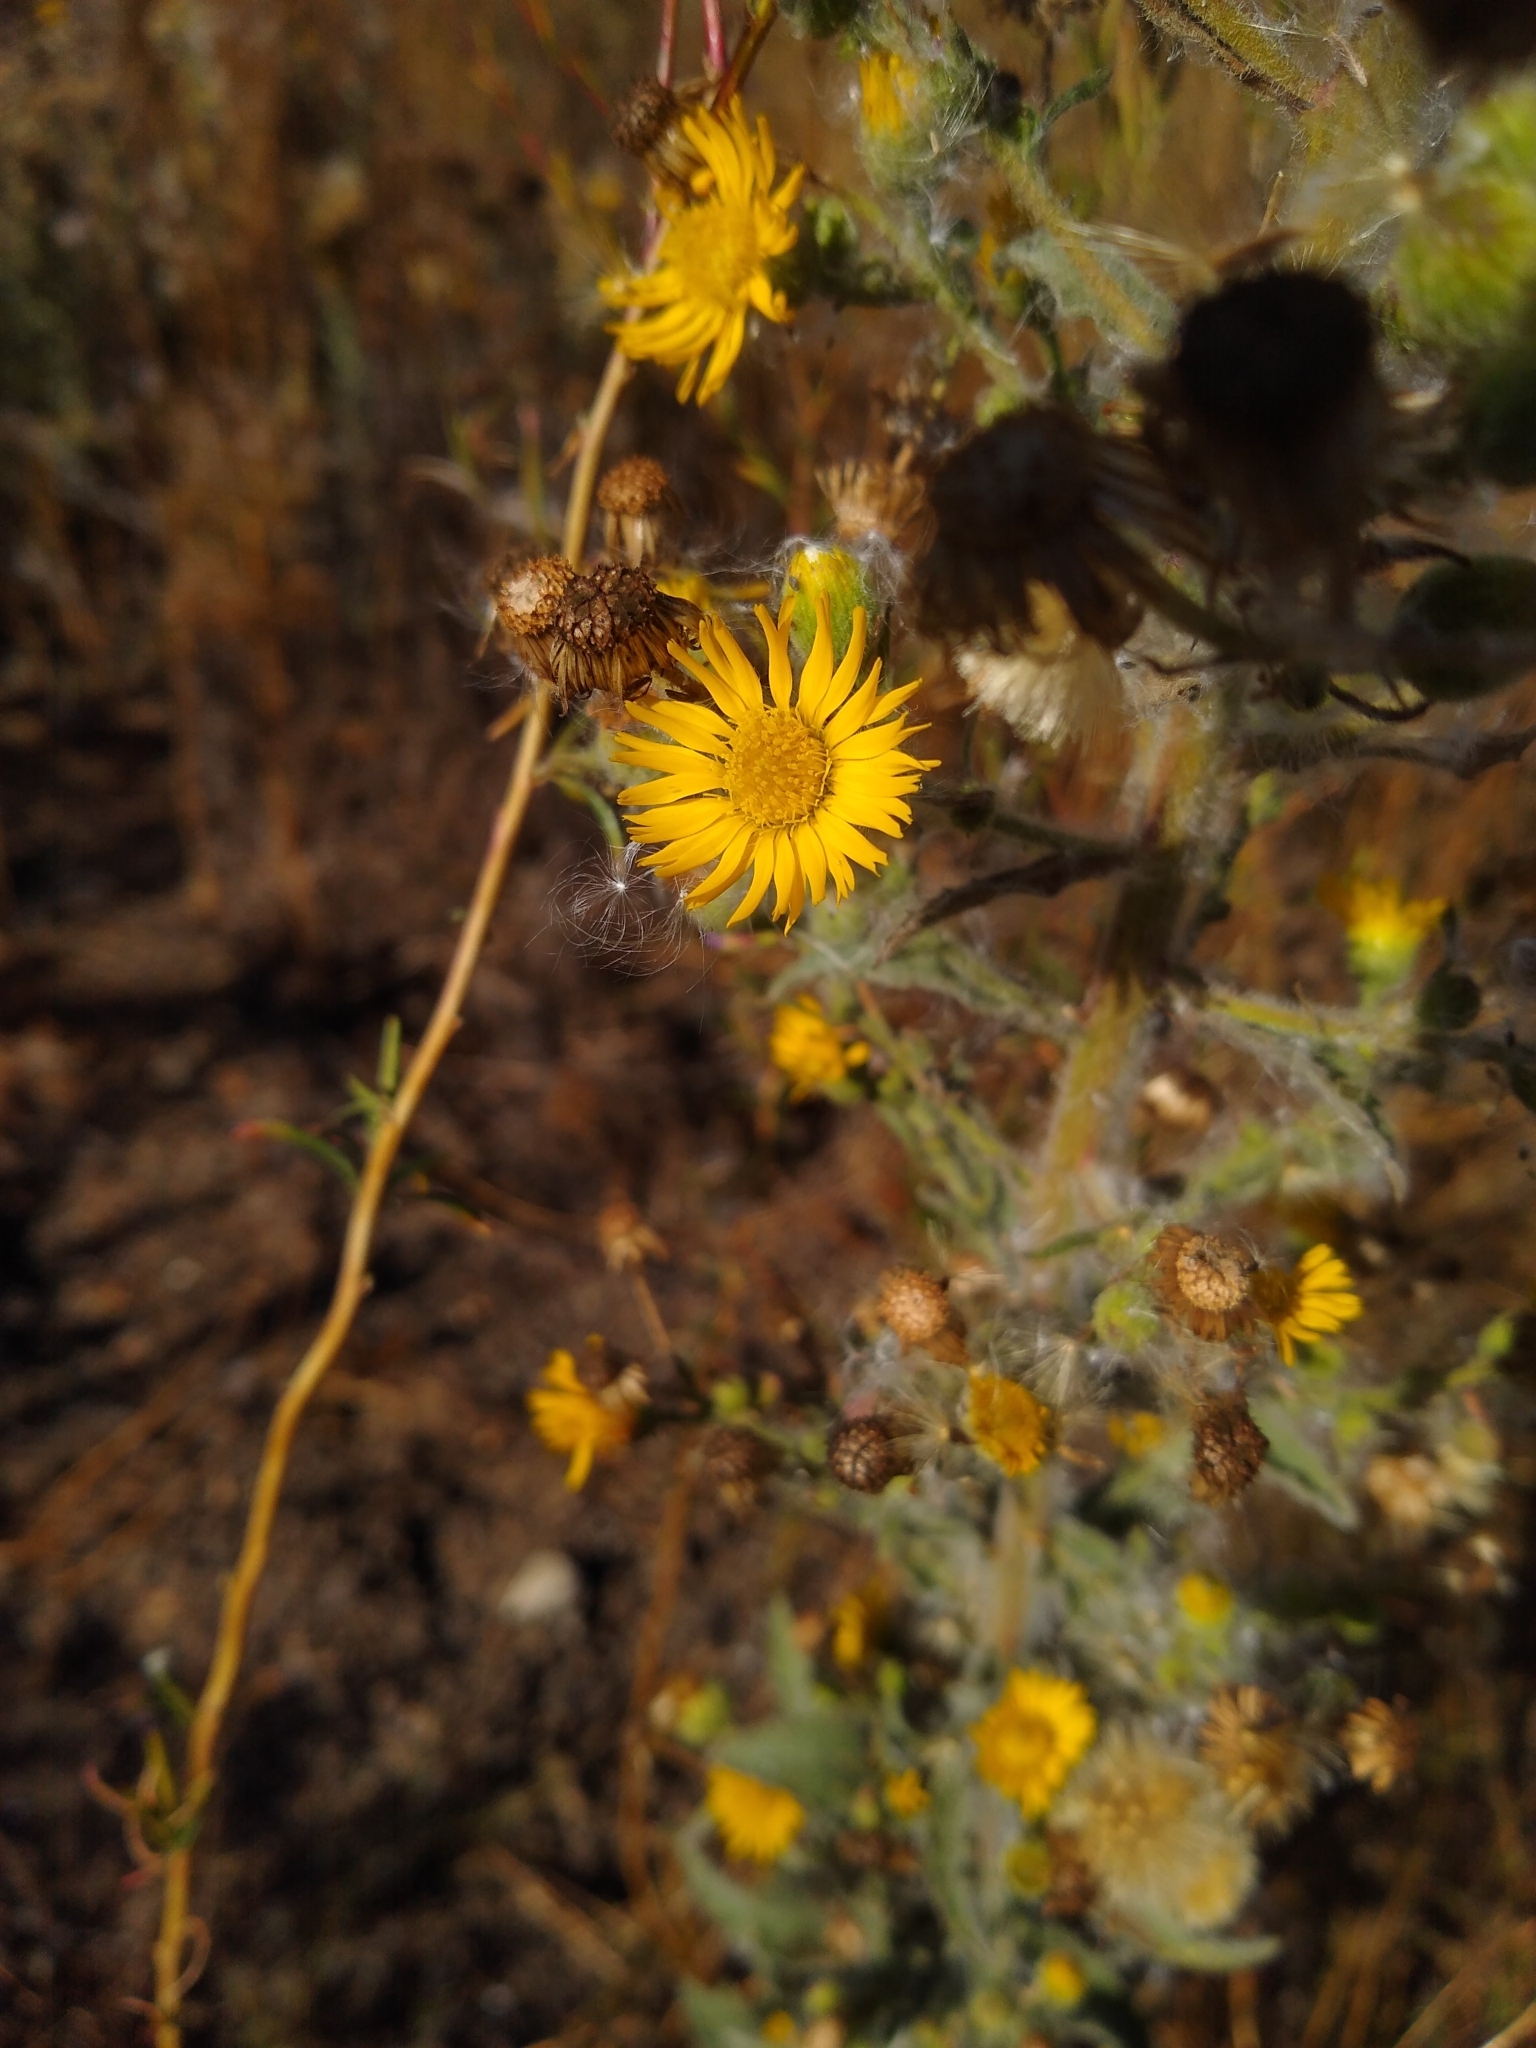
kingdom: Plantae
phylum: Tracheophyta
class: Magnoliopsida
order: Asterales
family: Asteraceae
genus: Heterotheca
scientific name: Heterotheca grandiflora
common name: Telegraphweed
